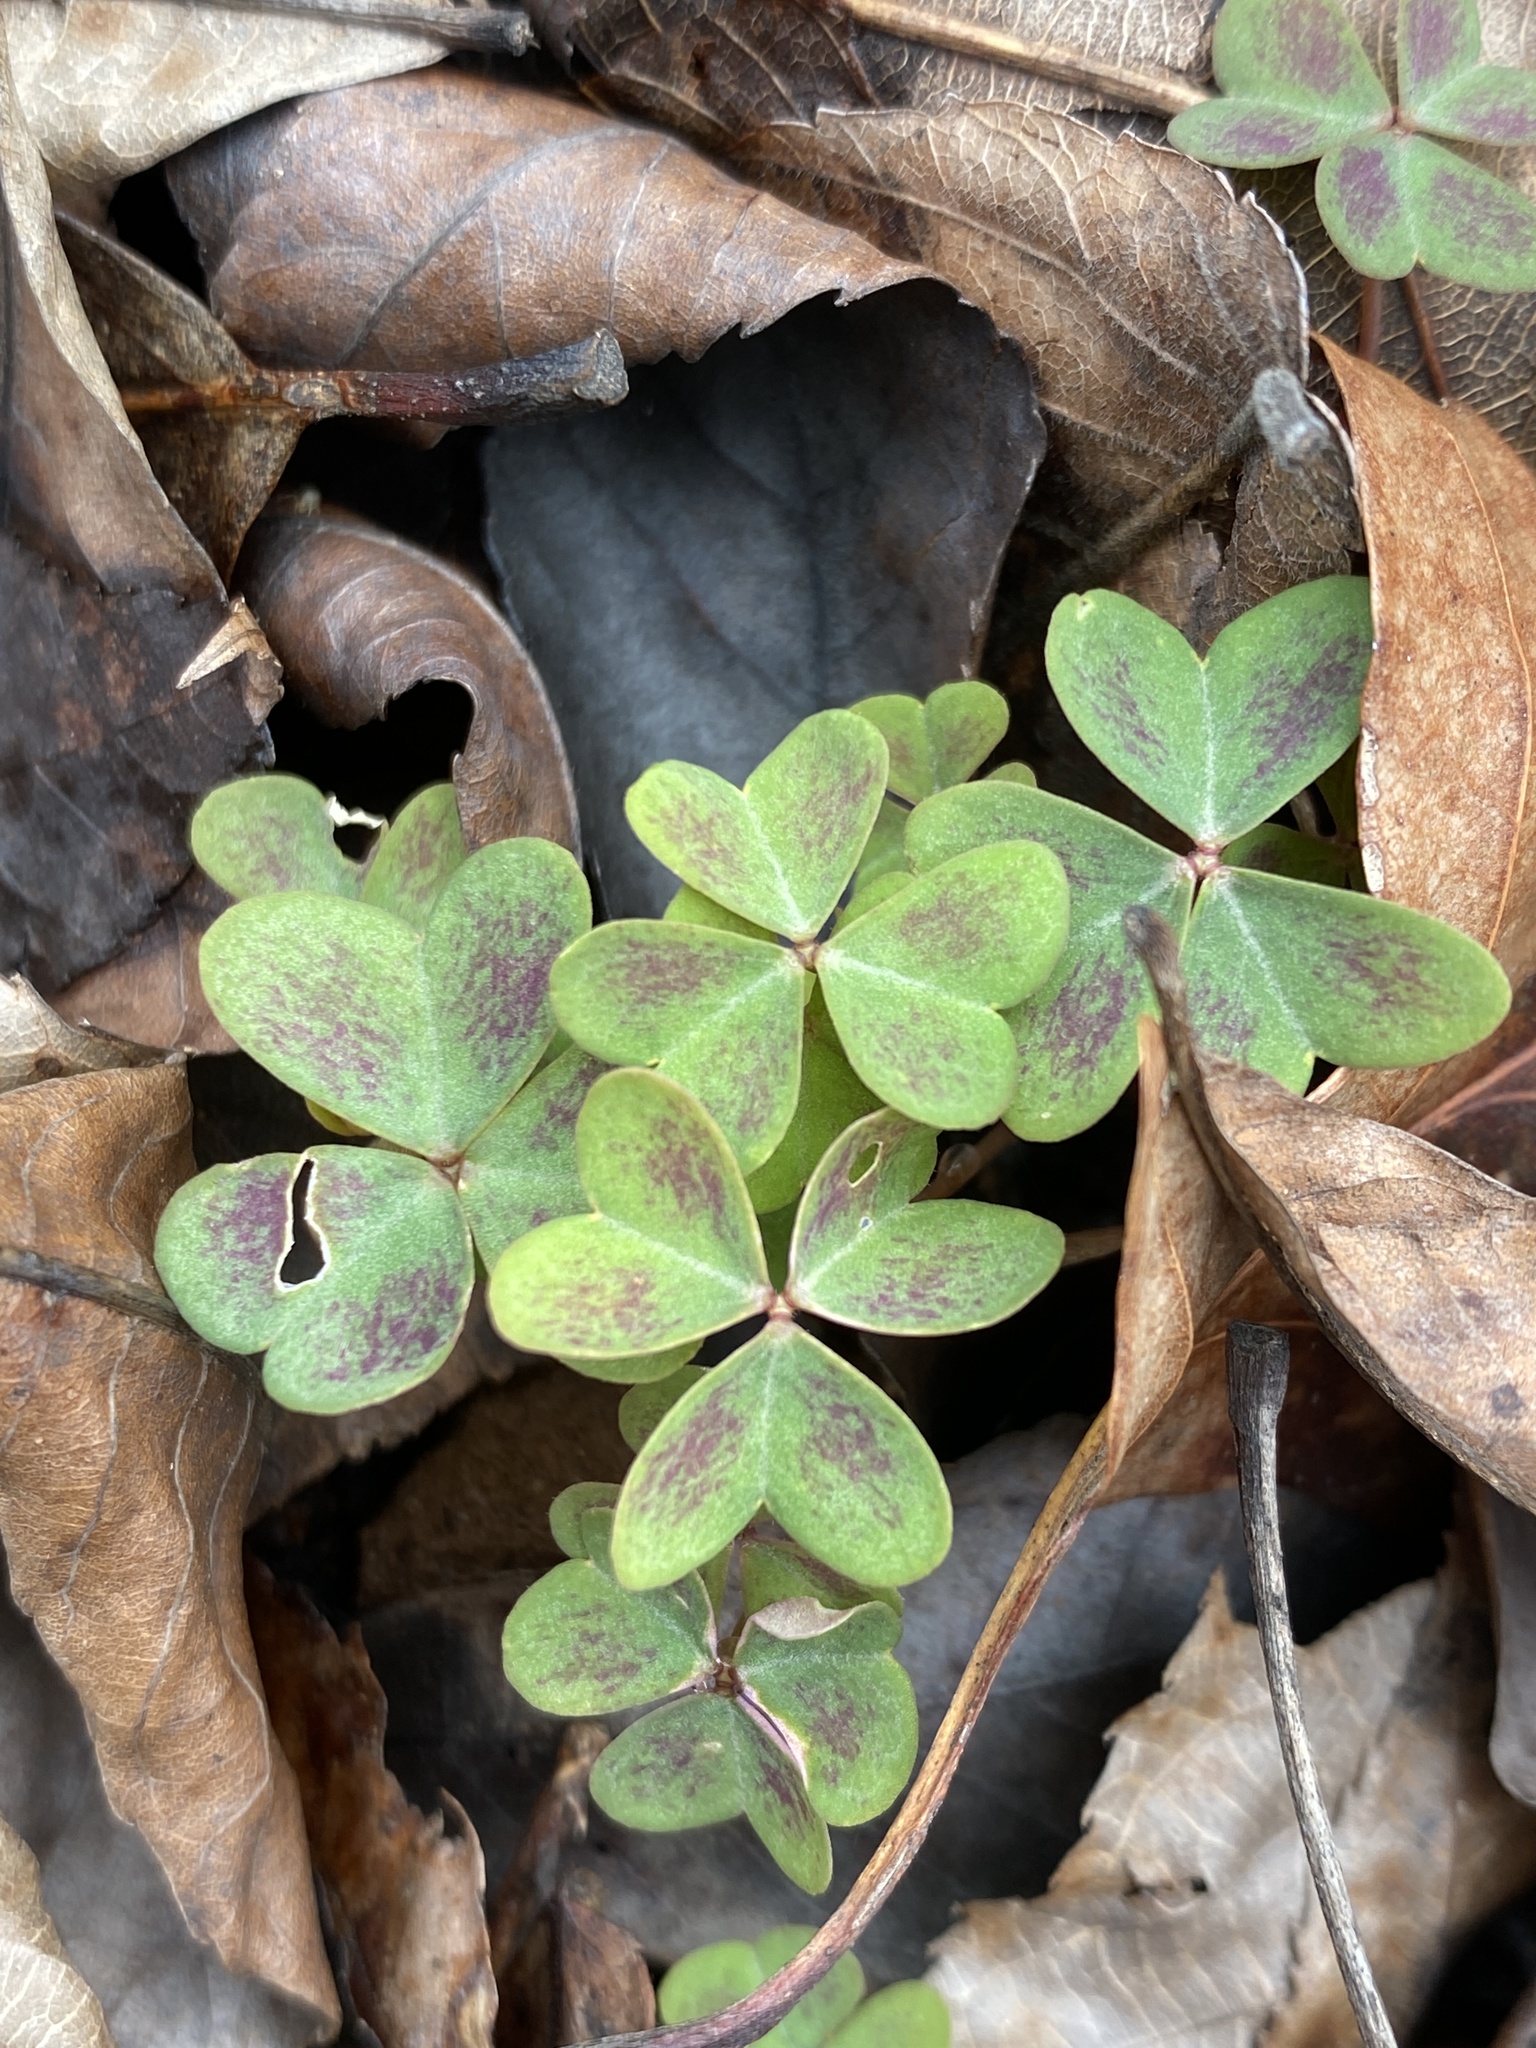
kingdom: Plantae
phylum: Tracheophyta
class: Magnoliopsida
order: Oxalidales
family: Oxalidaceae
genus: Oxalis
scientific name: Oxalis violacea
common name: Violet wood-sorrel
